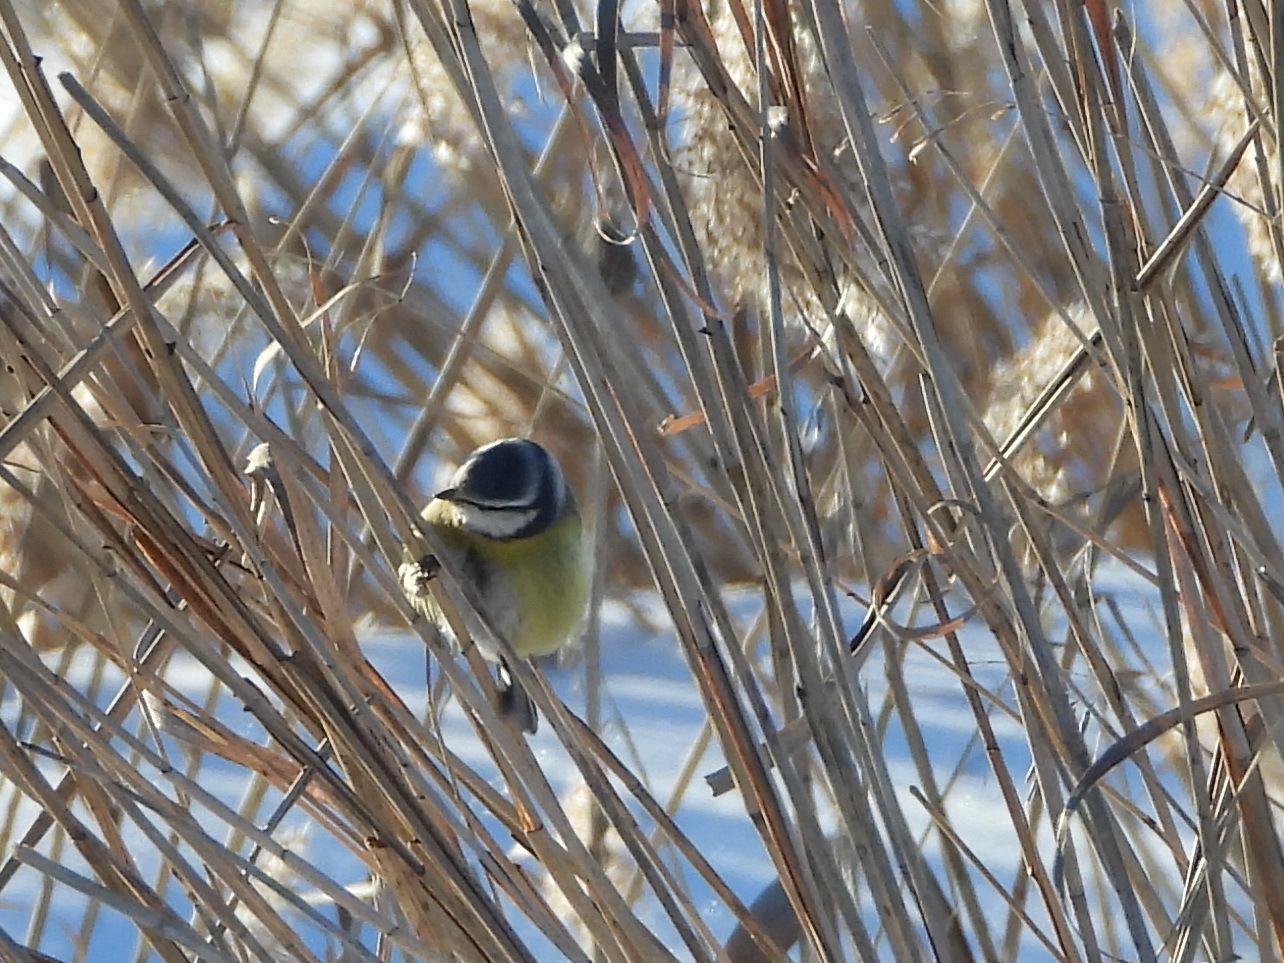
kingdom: Animalia
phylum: Chordata
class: Aves
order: Passeriformes
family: Paridae
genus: Cyanistes
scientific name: Cyanistes caeruleus
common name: Eurasian blue tit
